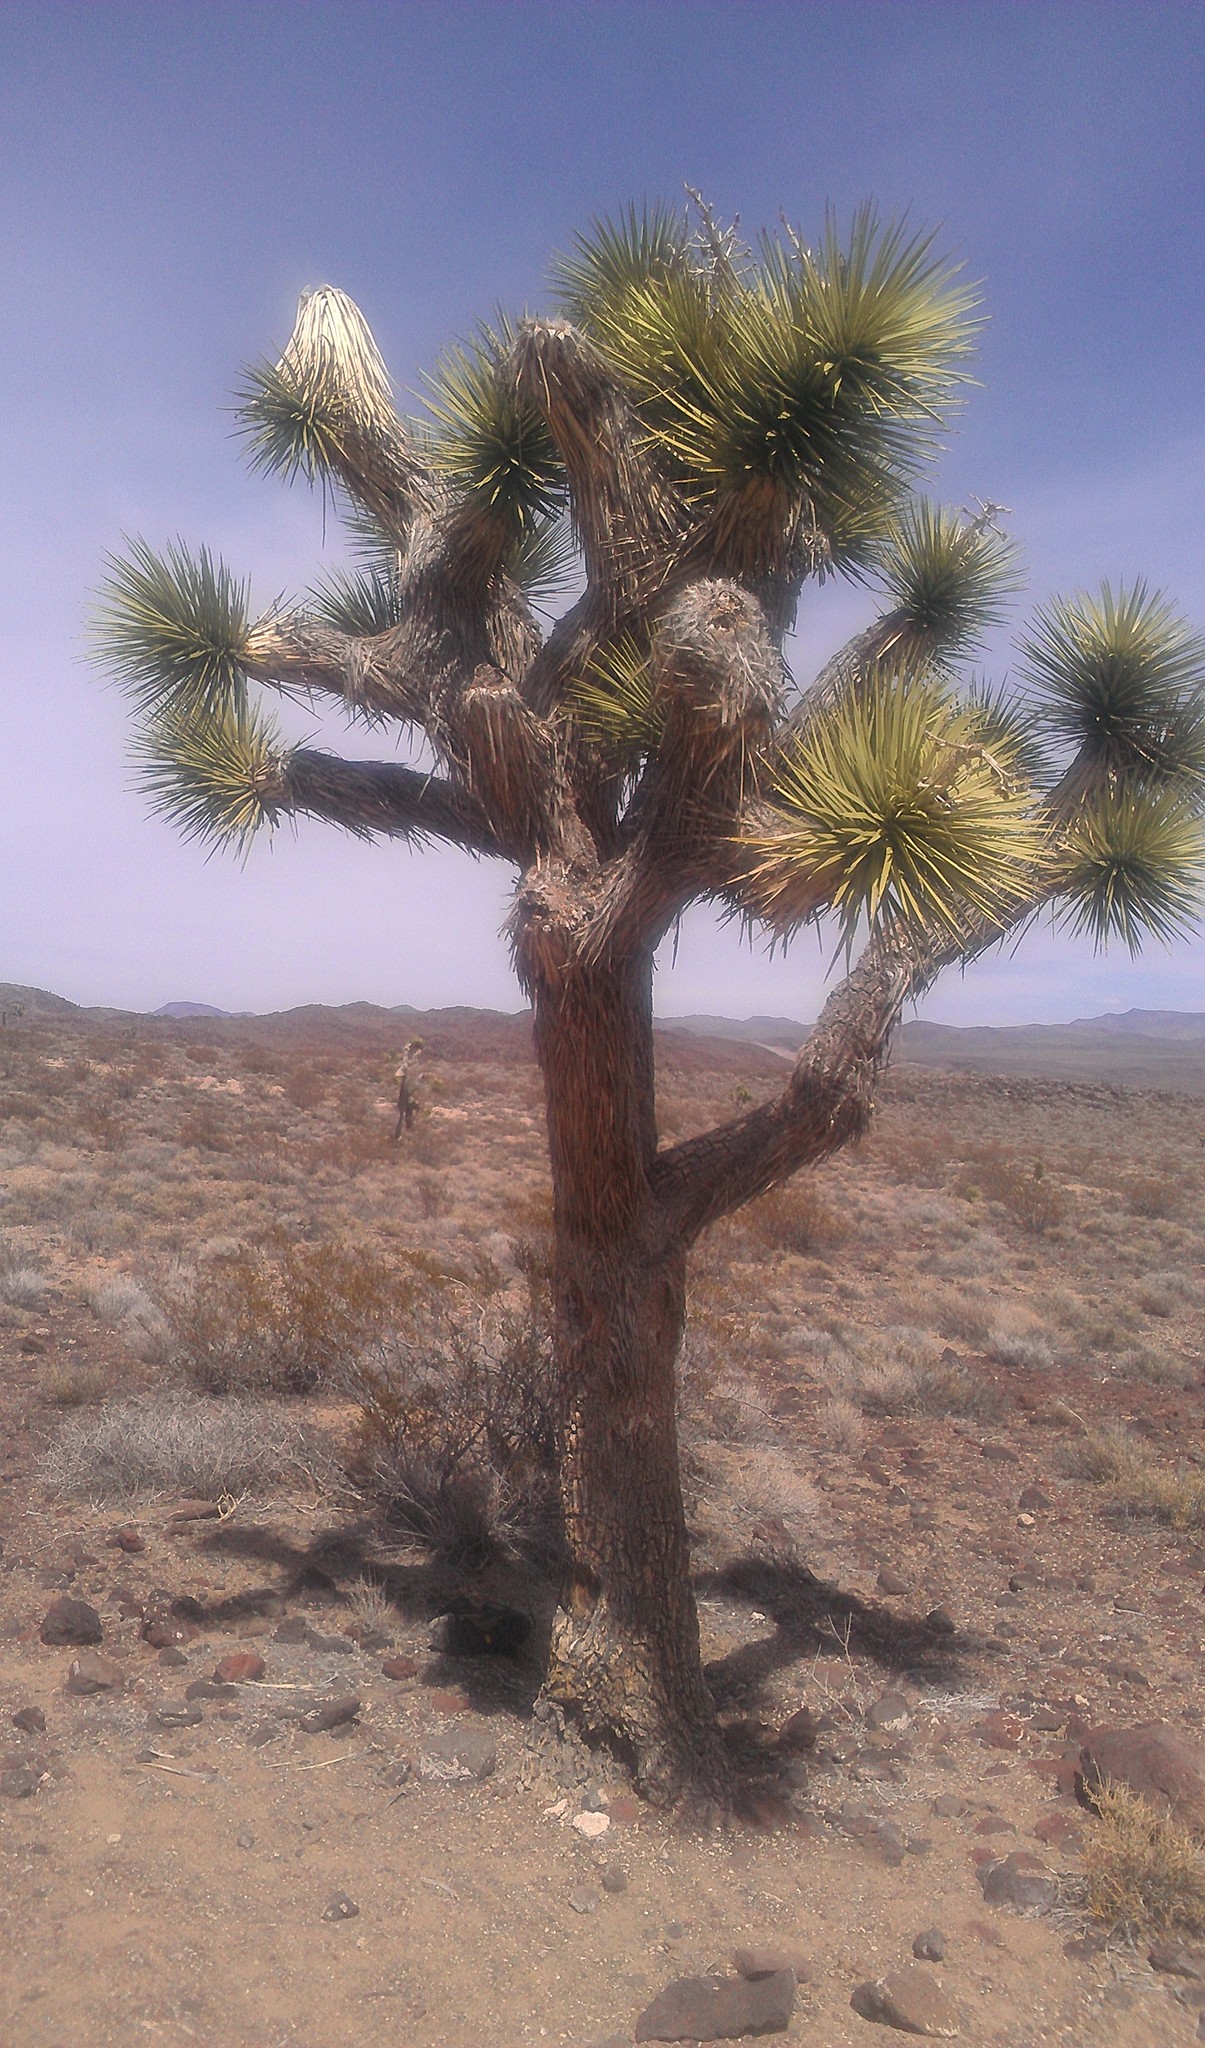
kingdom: Plantae
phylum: Tracheophyta
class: Liliopsida
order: Asparagales
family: Asparagaceae
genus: Yucca
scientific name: Yucca brevifolia
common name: Joshua tree
